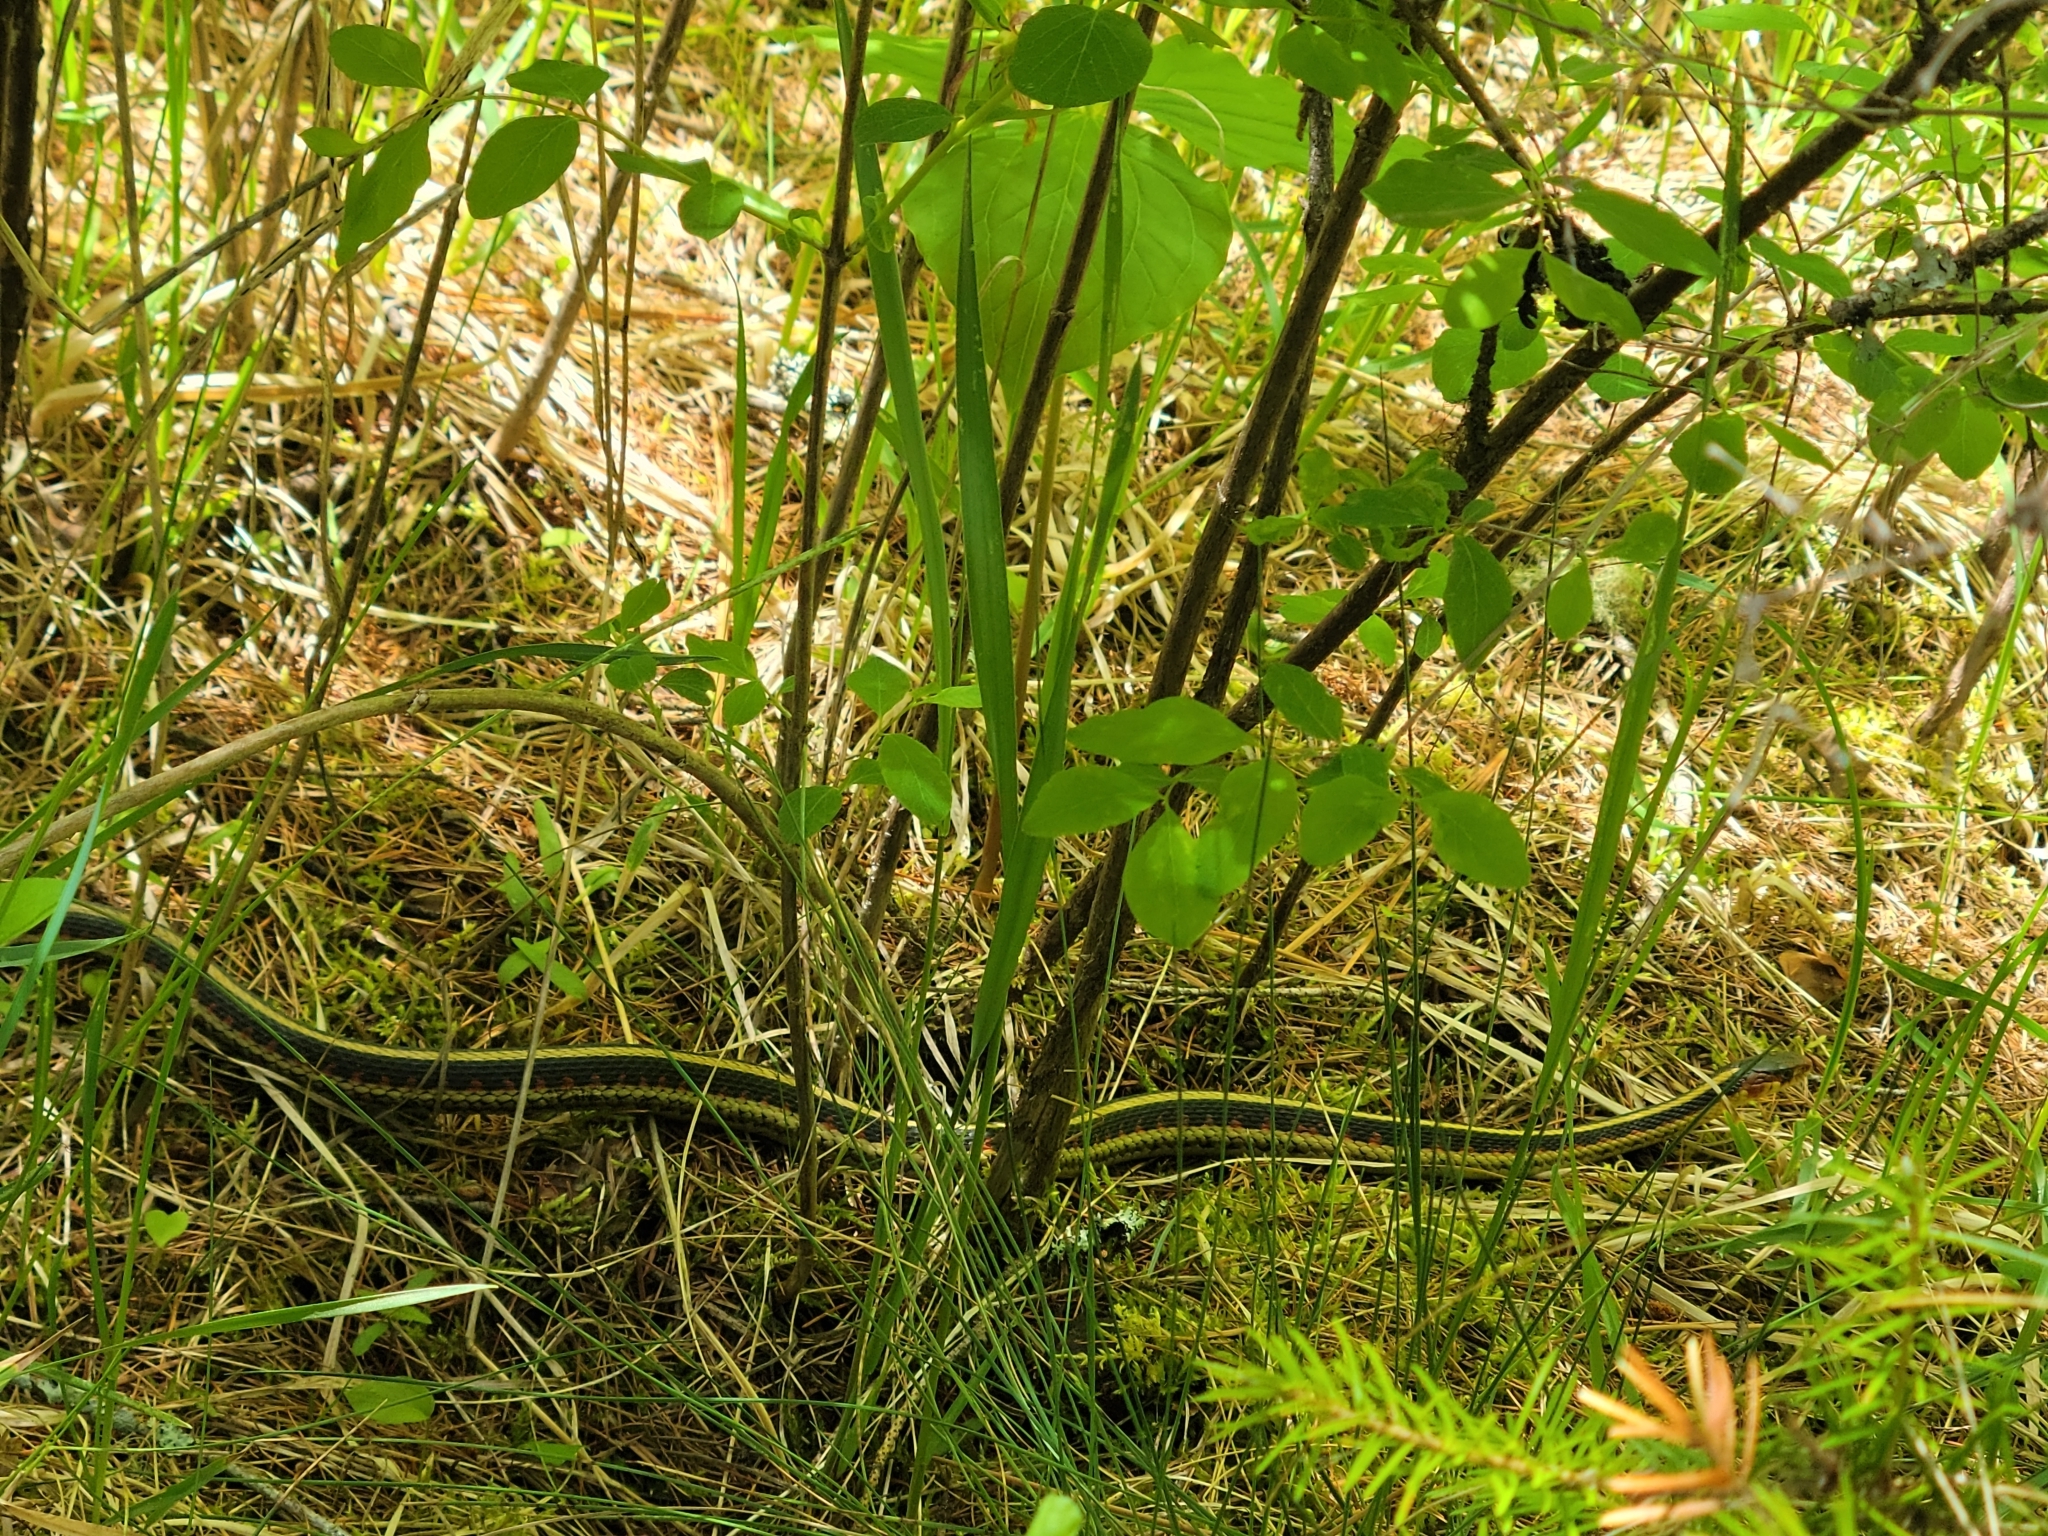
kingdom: Animalia
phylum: Chordata
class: Squamata
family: Colubridae
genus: Thamnophis
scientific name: Thamnophis sirtalis
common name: Common garter snake
